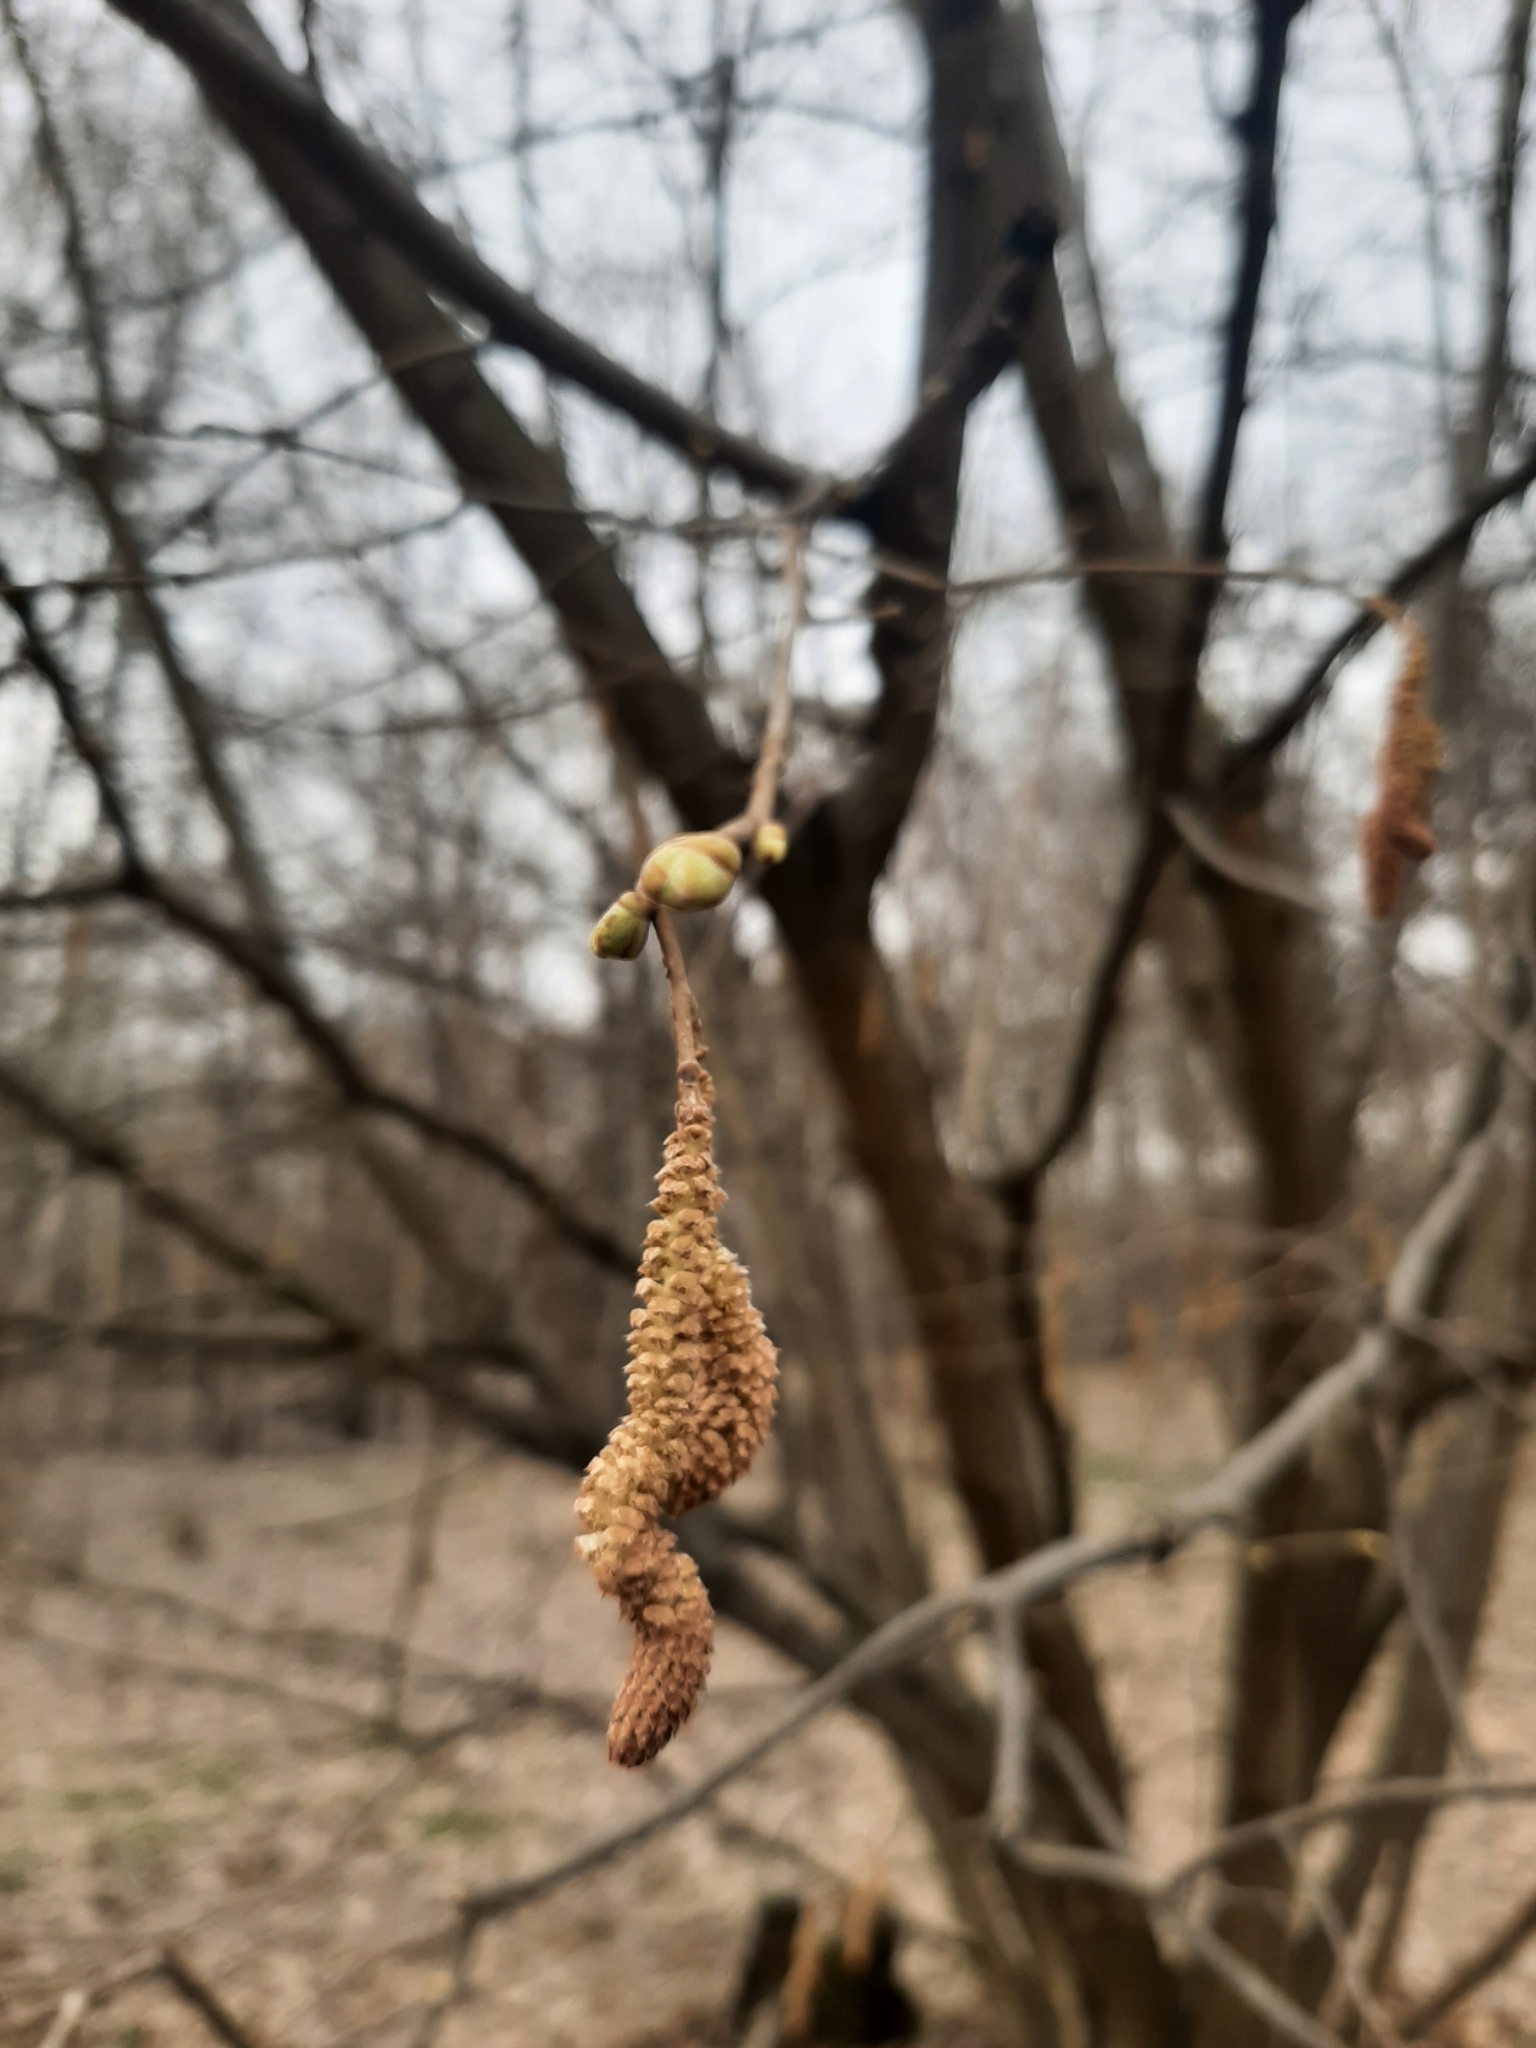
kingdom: Plantae
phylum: Tracheophyta
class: Magnoliopsida
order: Fagales
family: Betulaceae
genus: Corylus
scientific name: Corylus avellana
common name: European hazel
